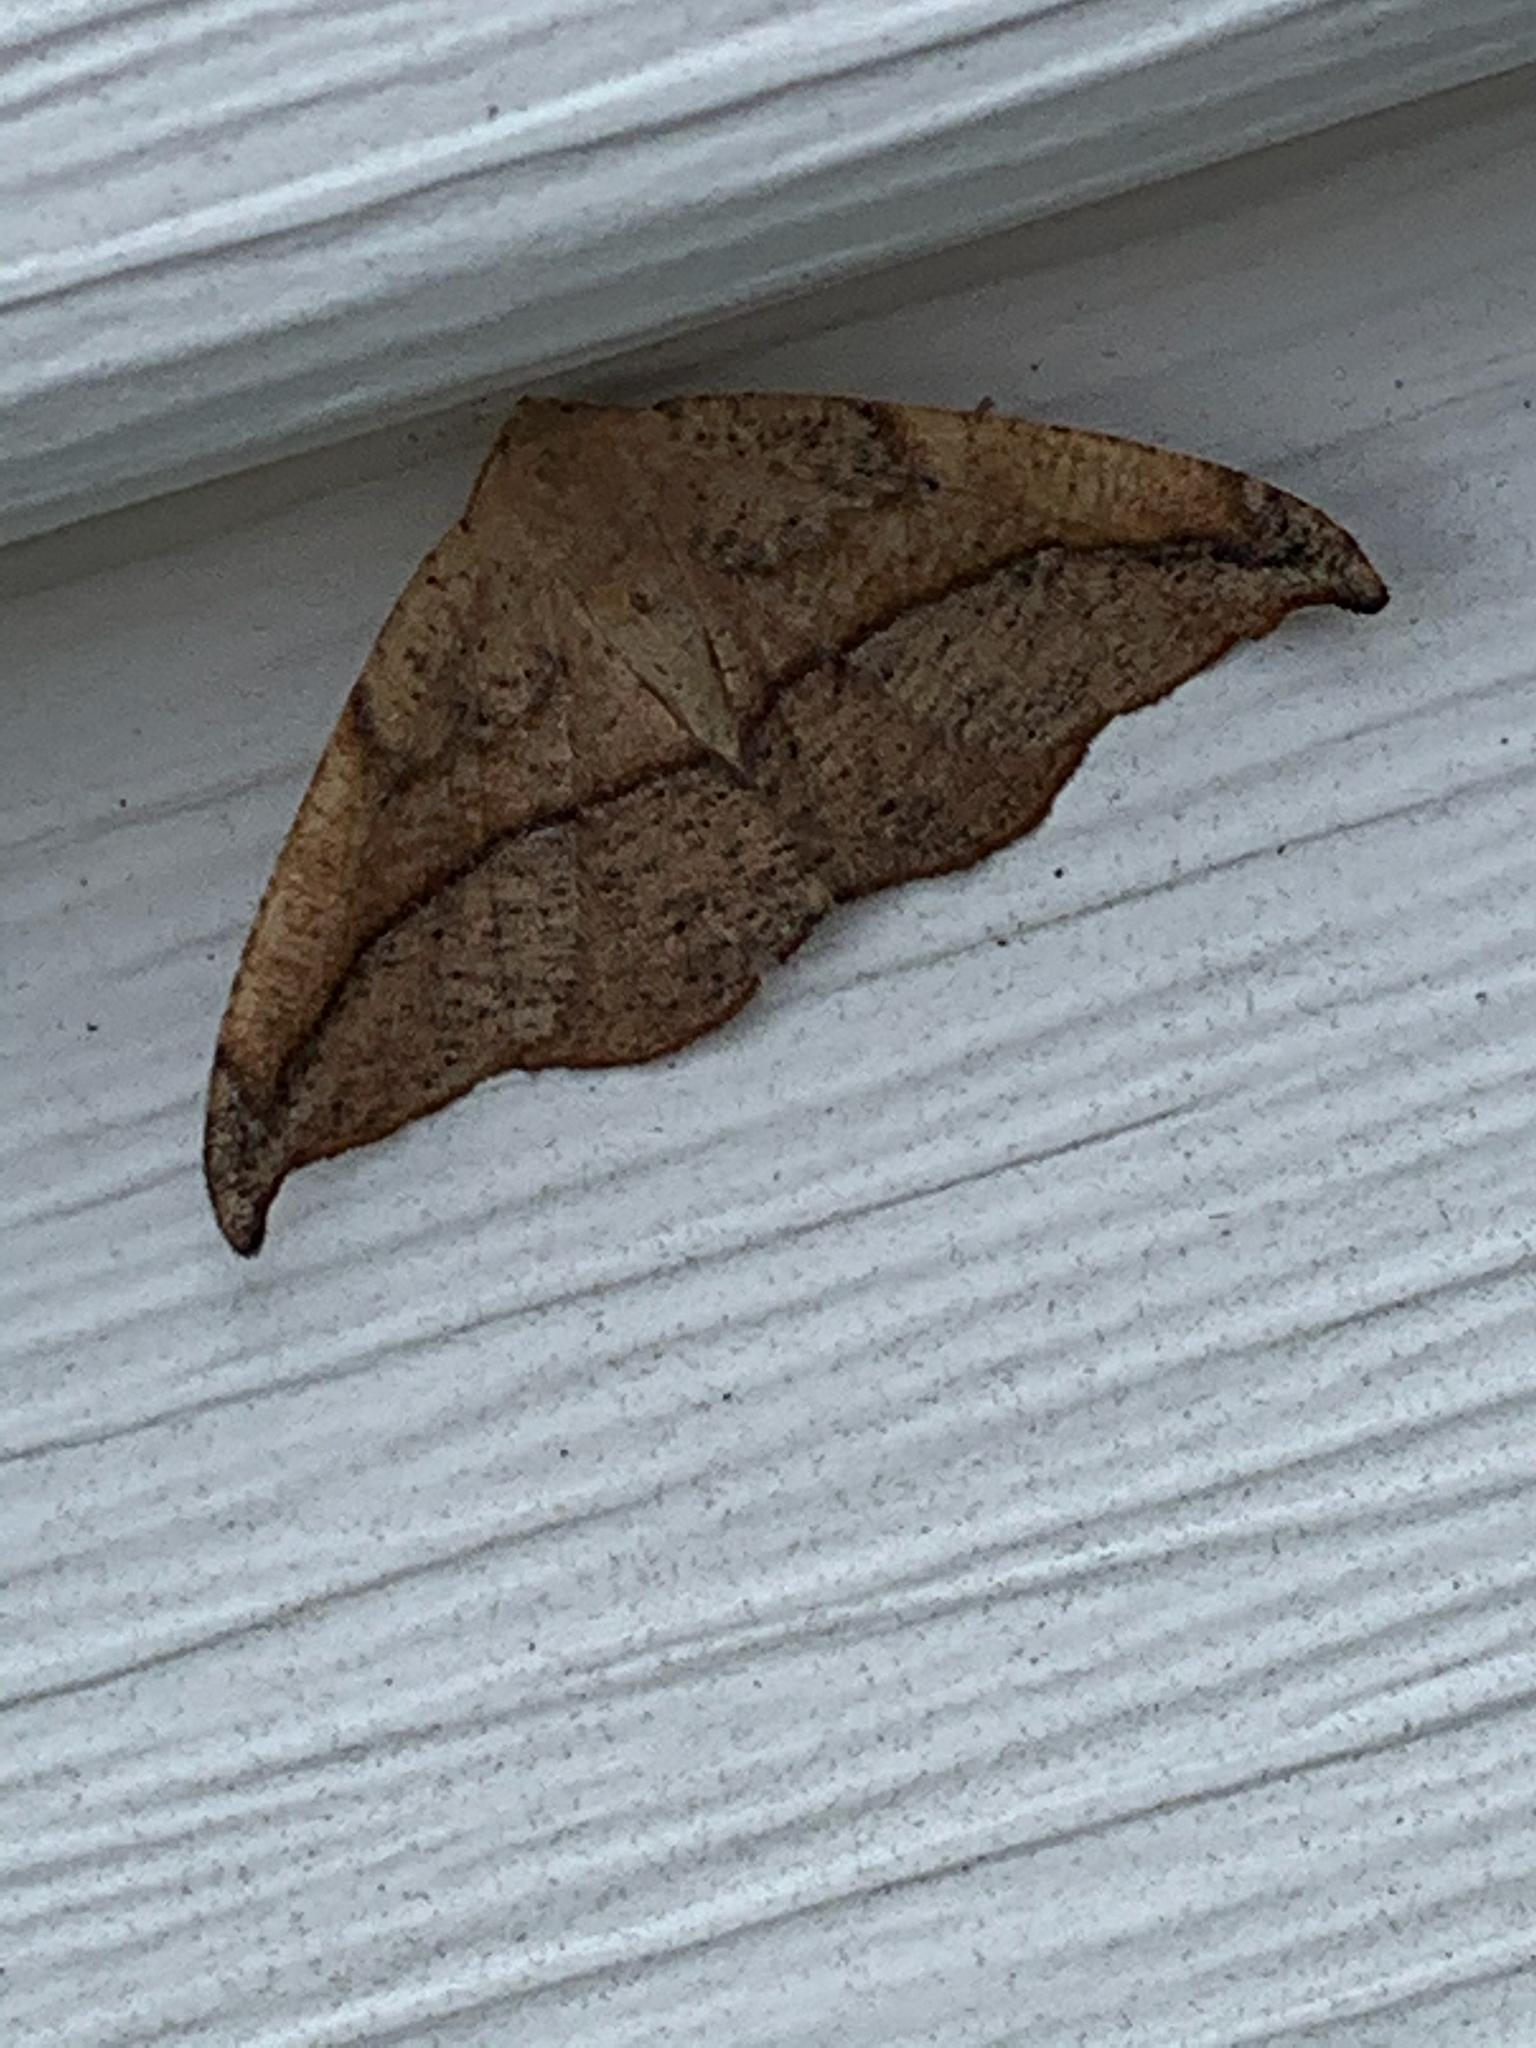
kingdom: Animalia
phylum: Arthropoda
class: Insecta
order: Lepidoptera
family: Geometridae
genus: Patalene
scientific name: Patalene olyzonaria
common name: Juniper geometer moth
